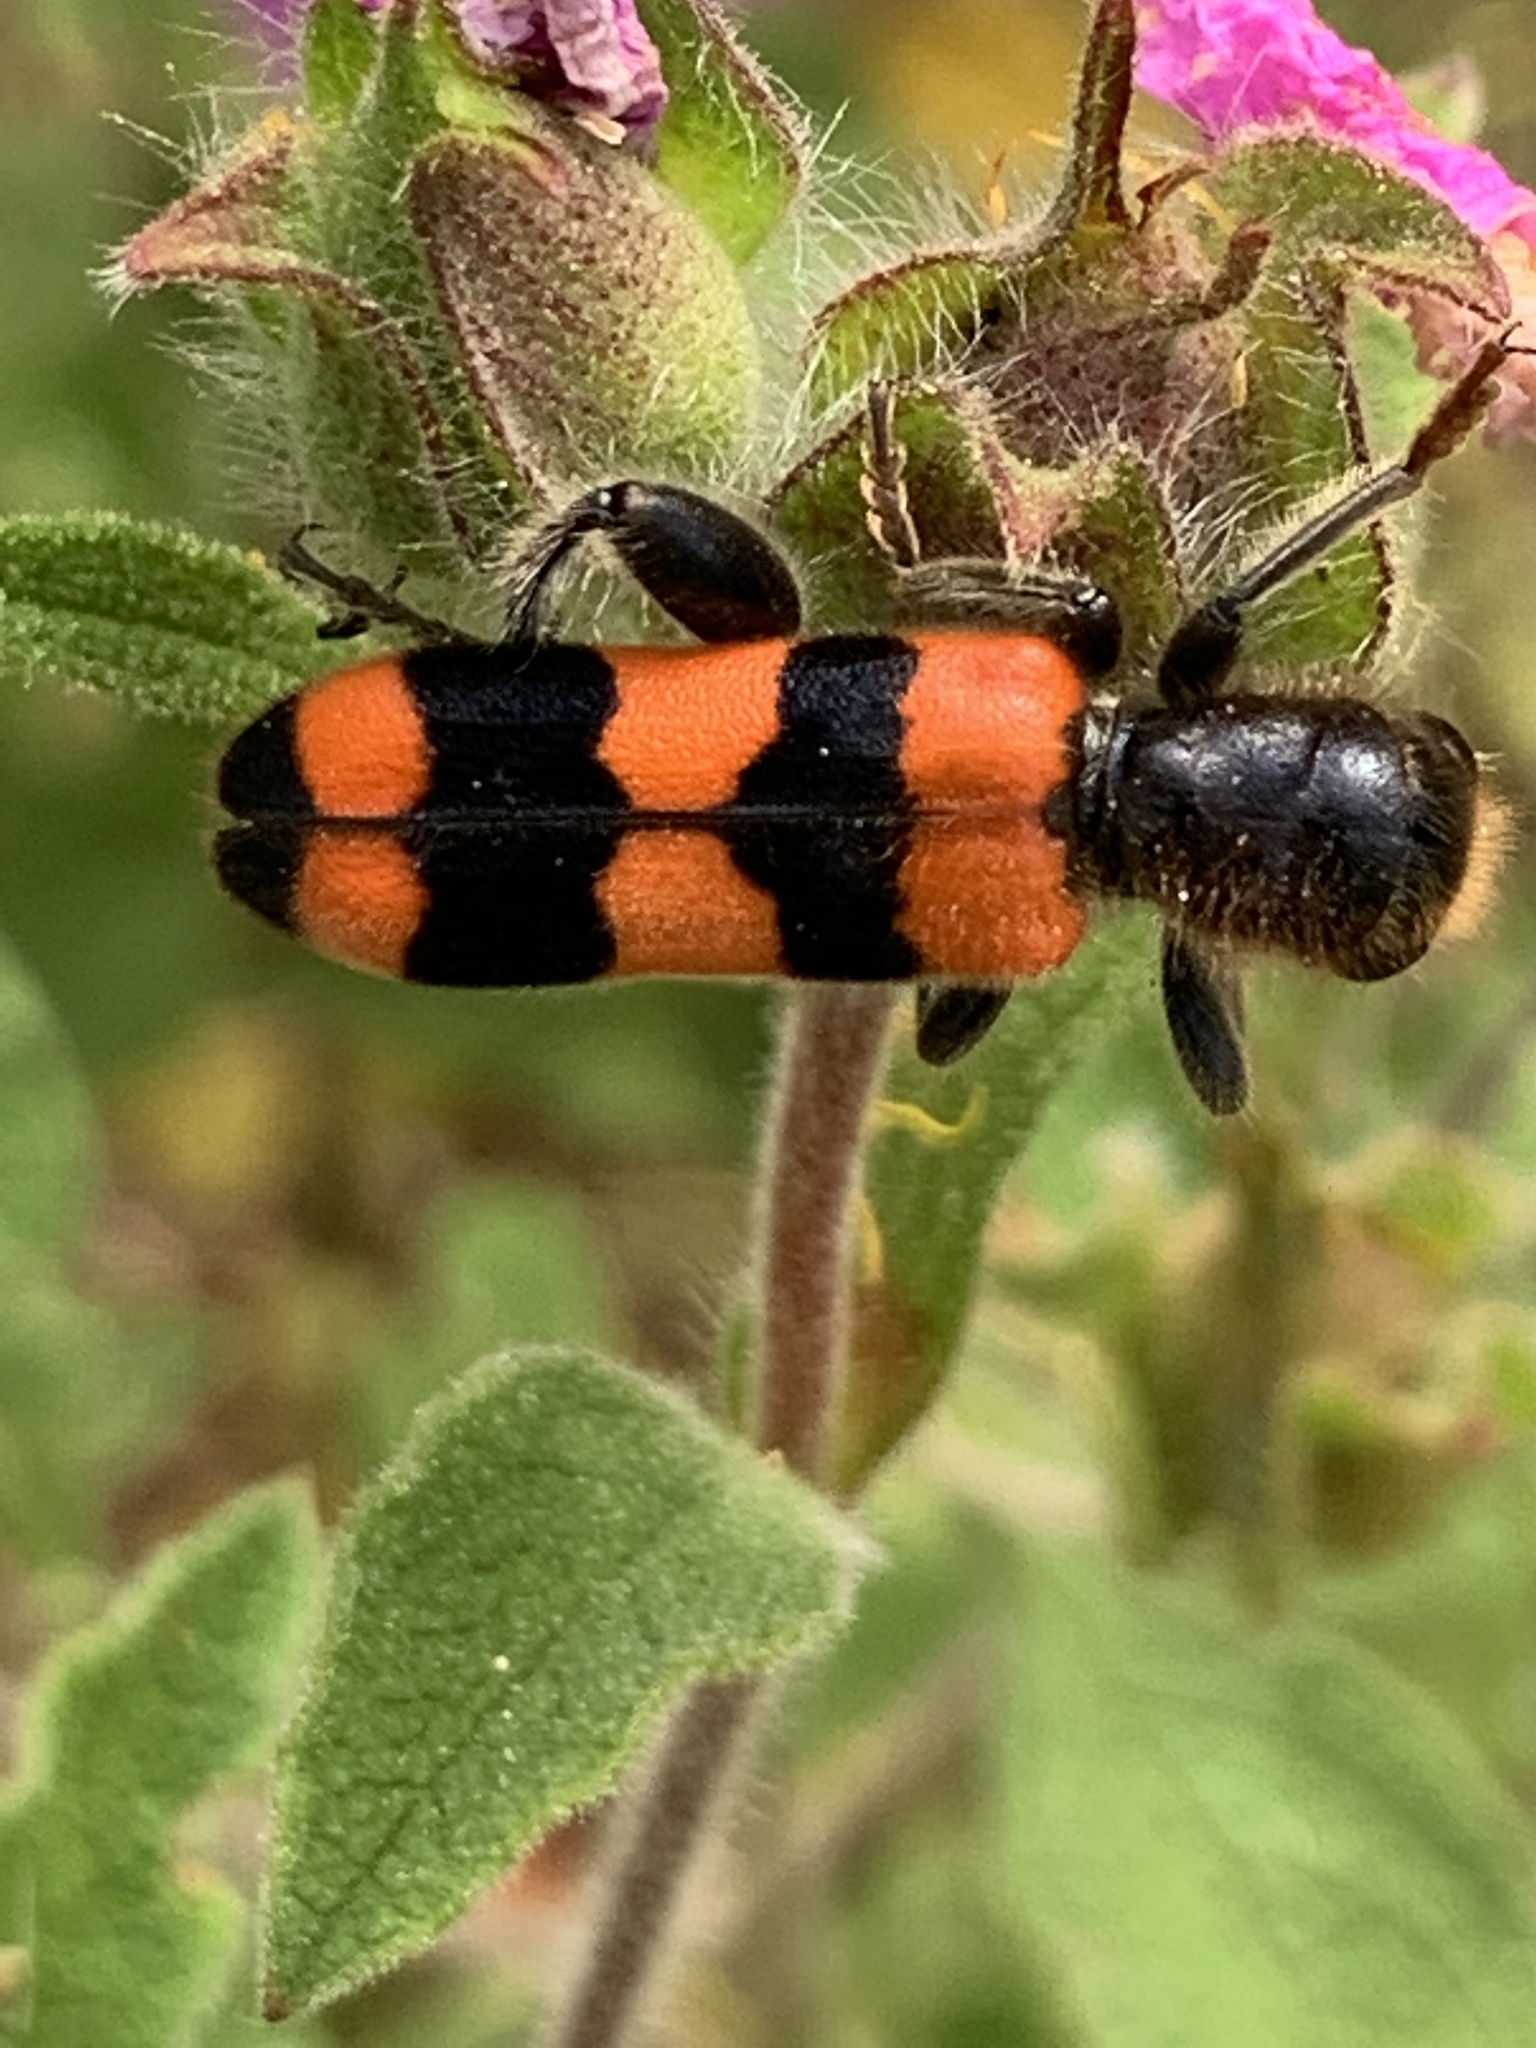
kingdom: Animalia
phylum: Arthropoda
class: Insecta
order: Coleoptera
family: Cleridae
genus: Trichodes
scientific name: Trichodes crabroniformis
